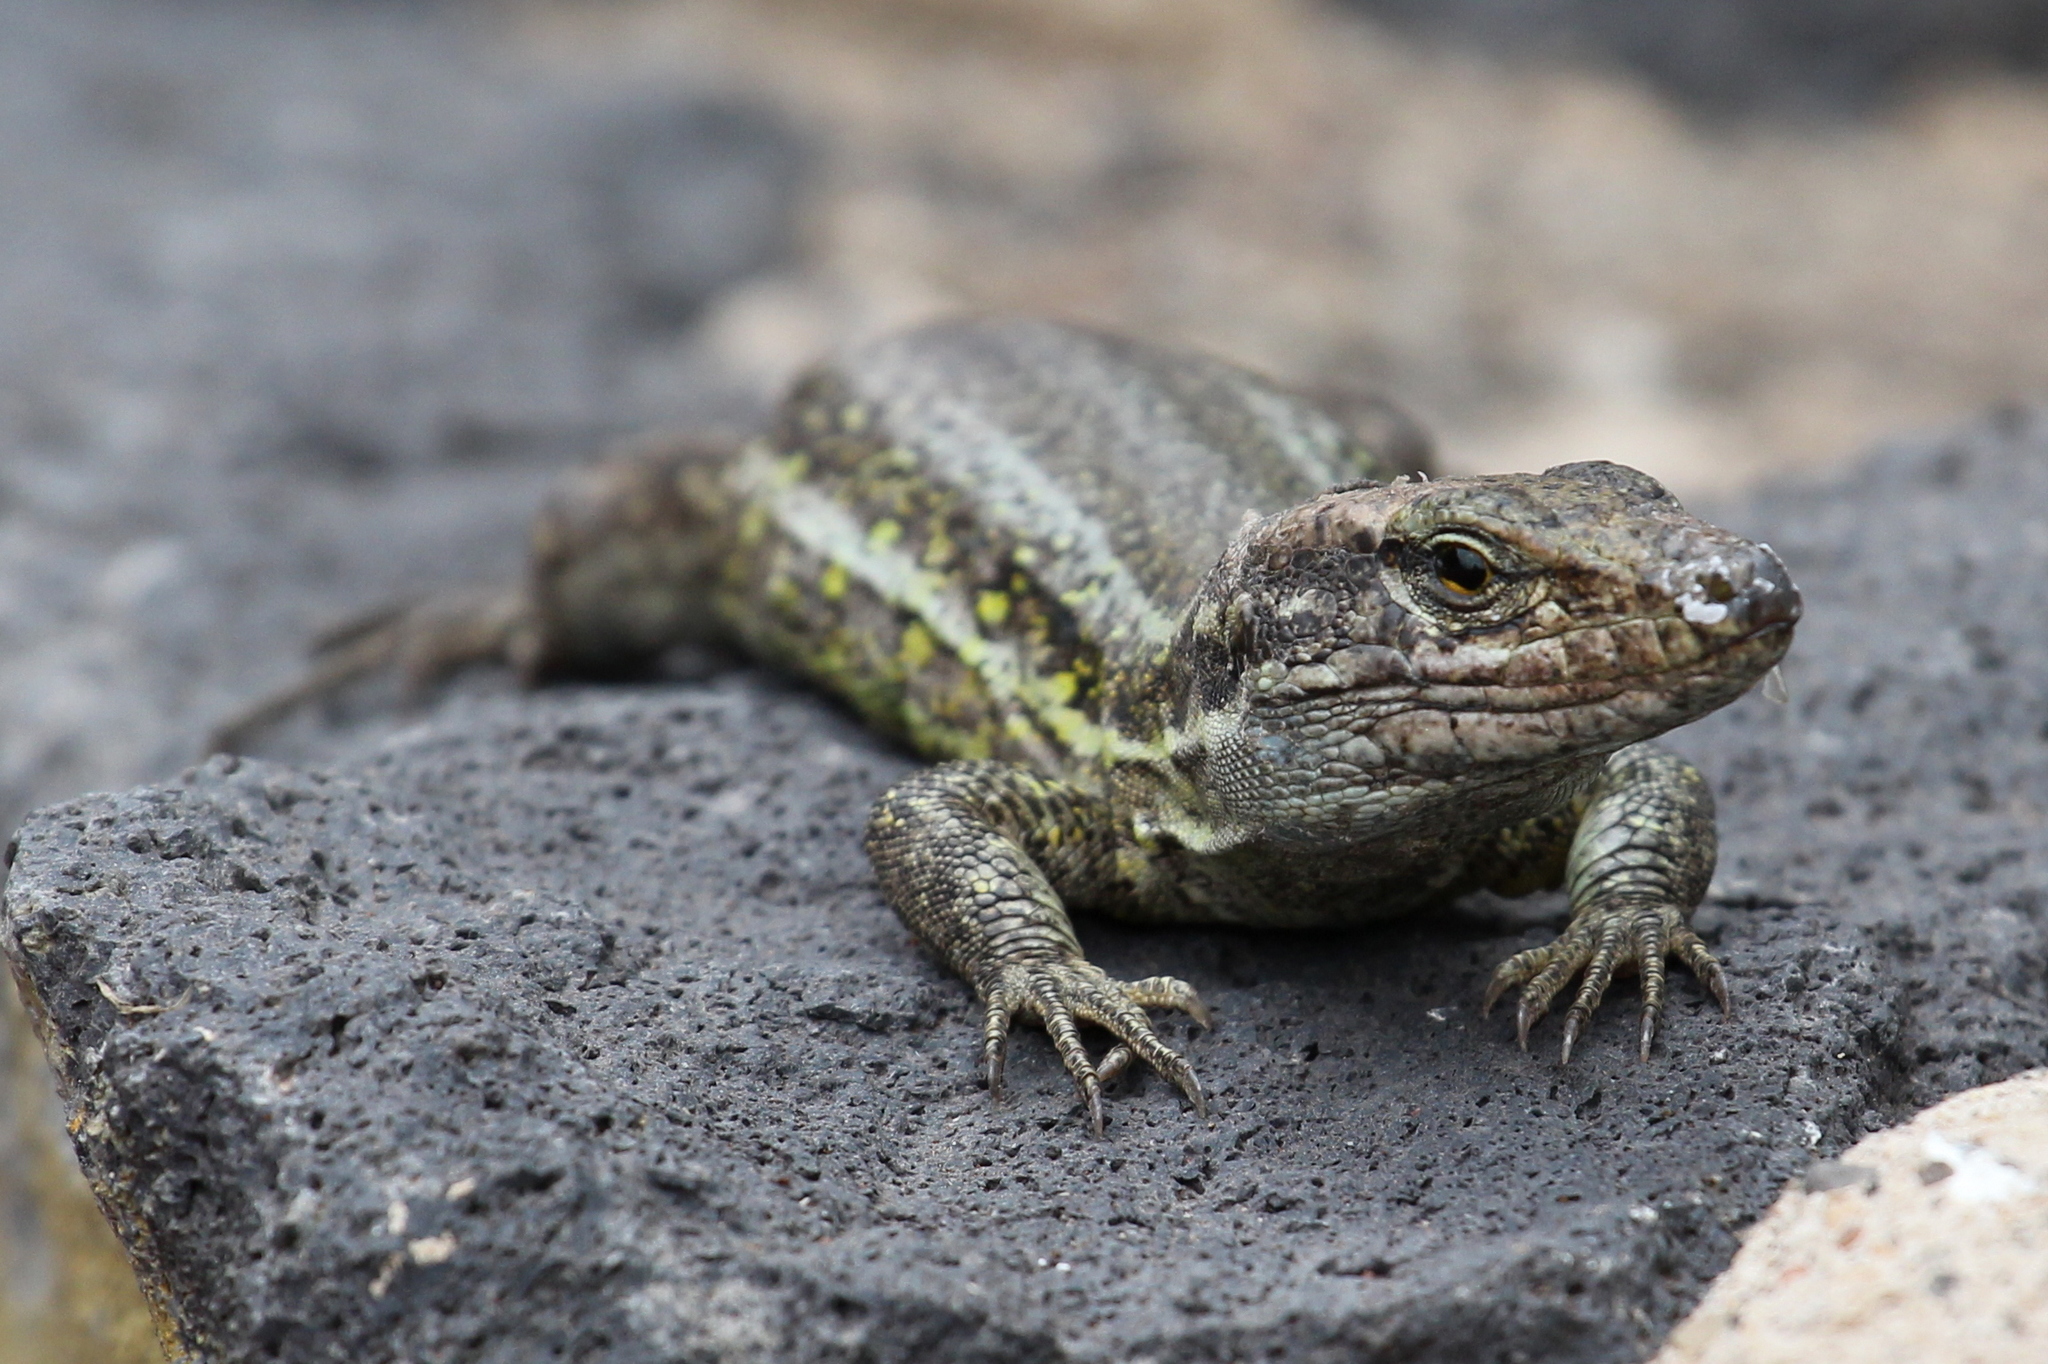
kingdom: Animalia
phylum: Chordata
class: Squamata
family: Lacertidae
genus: Gallotia
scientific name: Gallotia galloti
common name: Gallot's lizard
